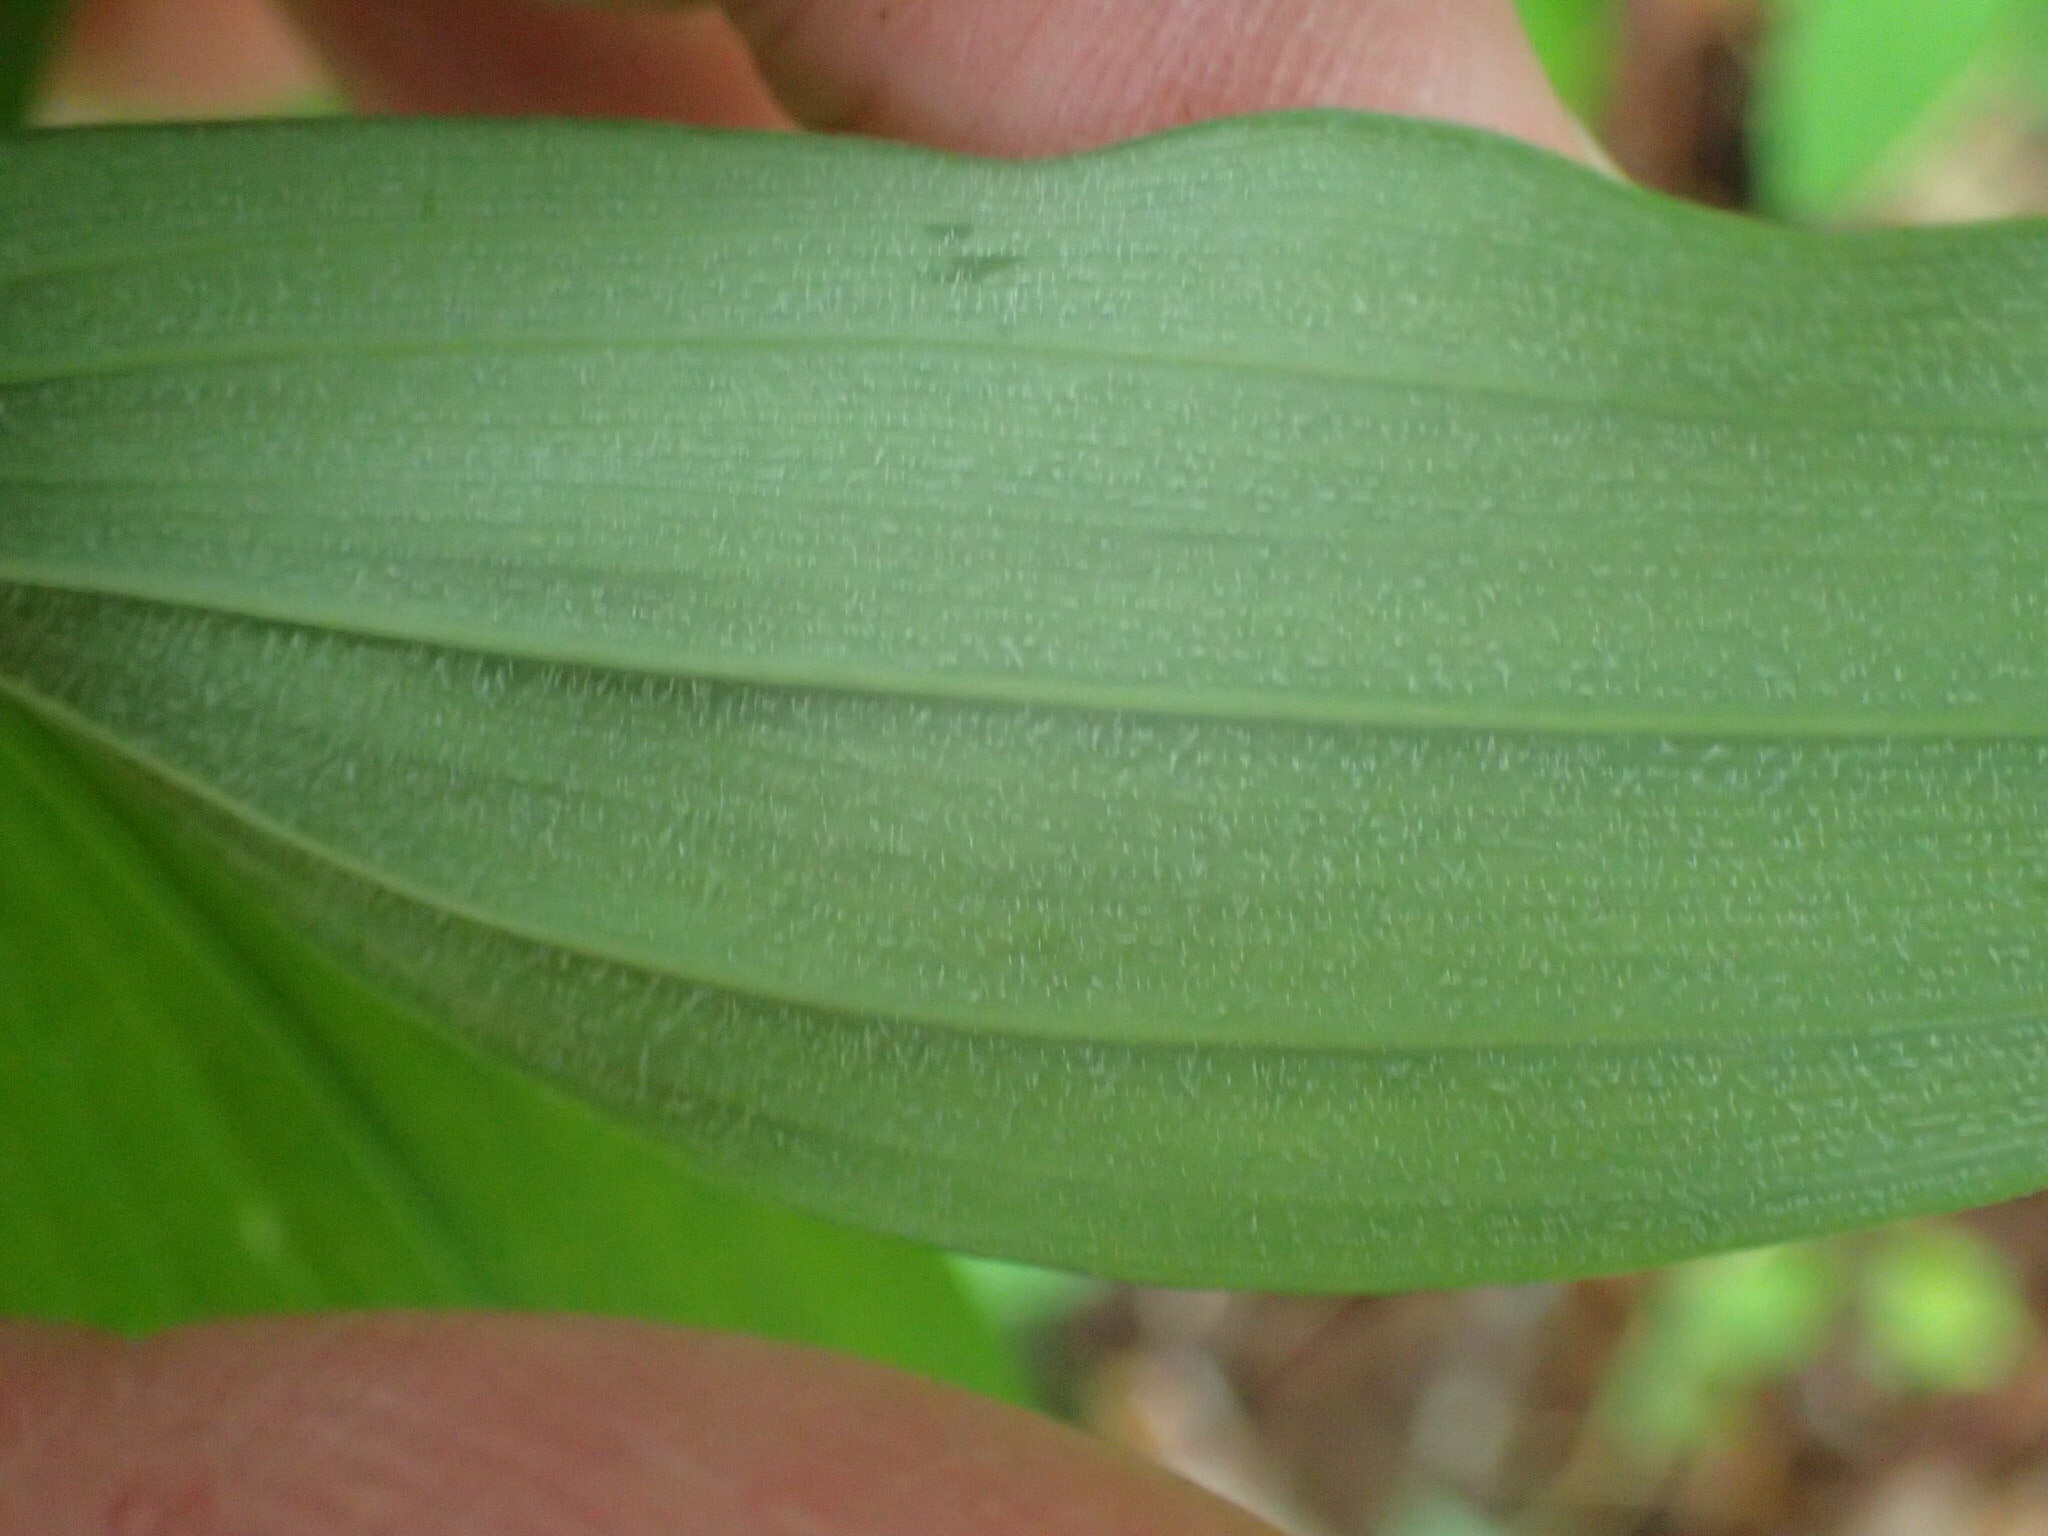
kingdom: Plantae
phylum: Tracheophyta
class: Liliopsida
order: Asparagales
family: Asparagaceae
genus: Polygonatum
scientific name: Polygonatum pubescens
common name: Downy solomon's seal
